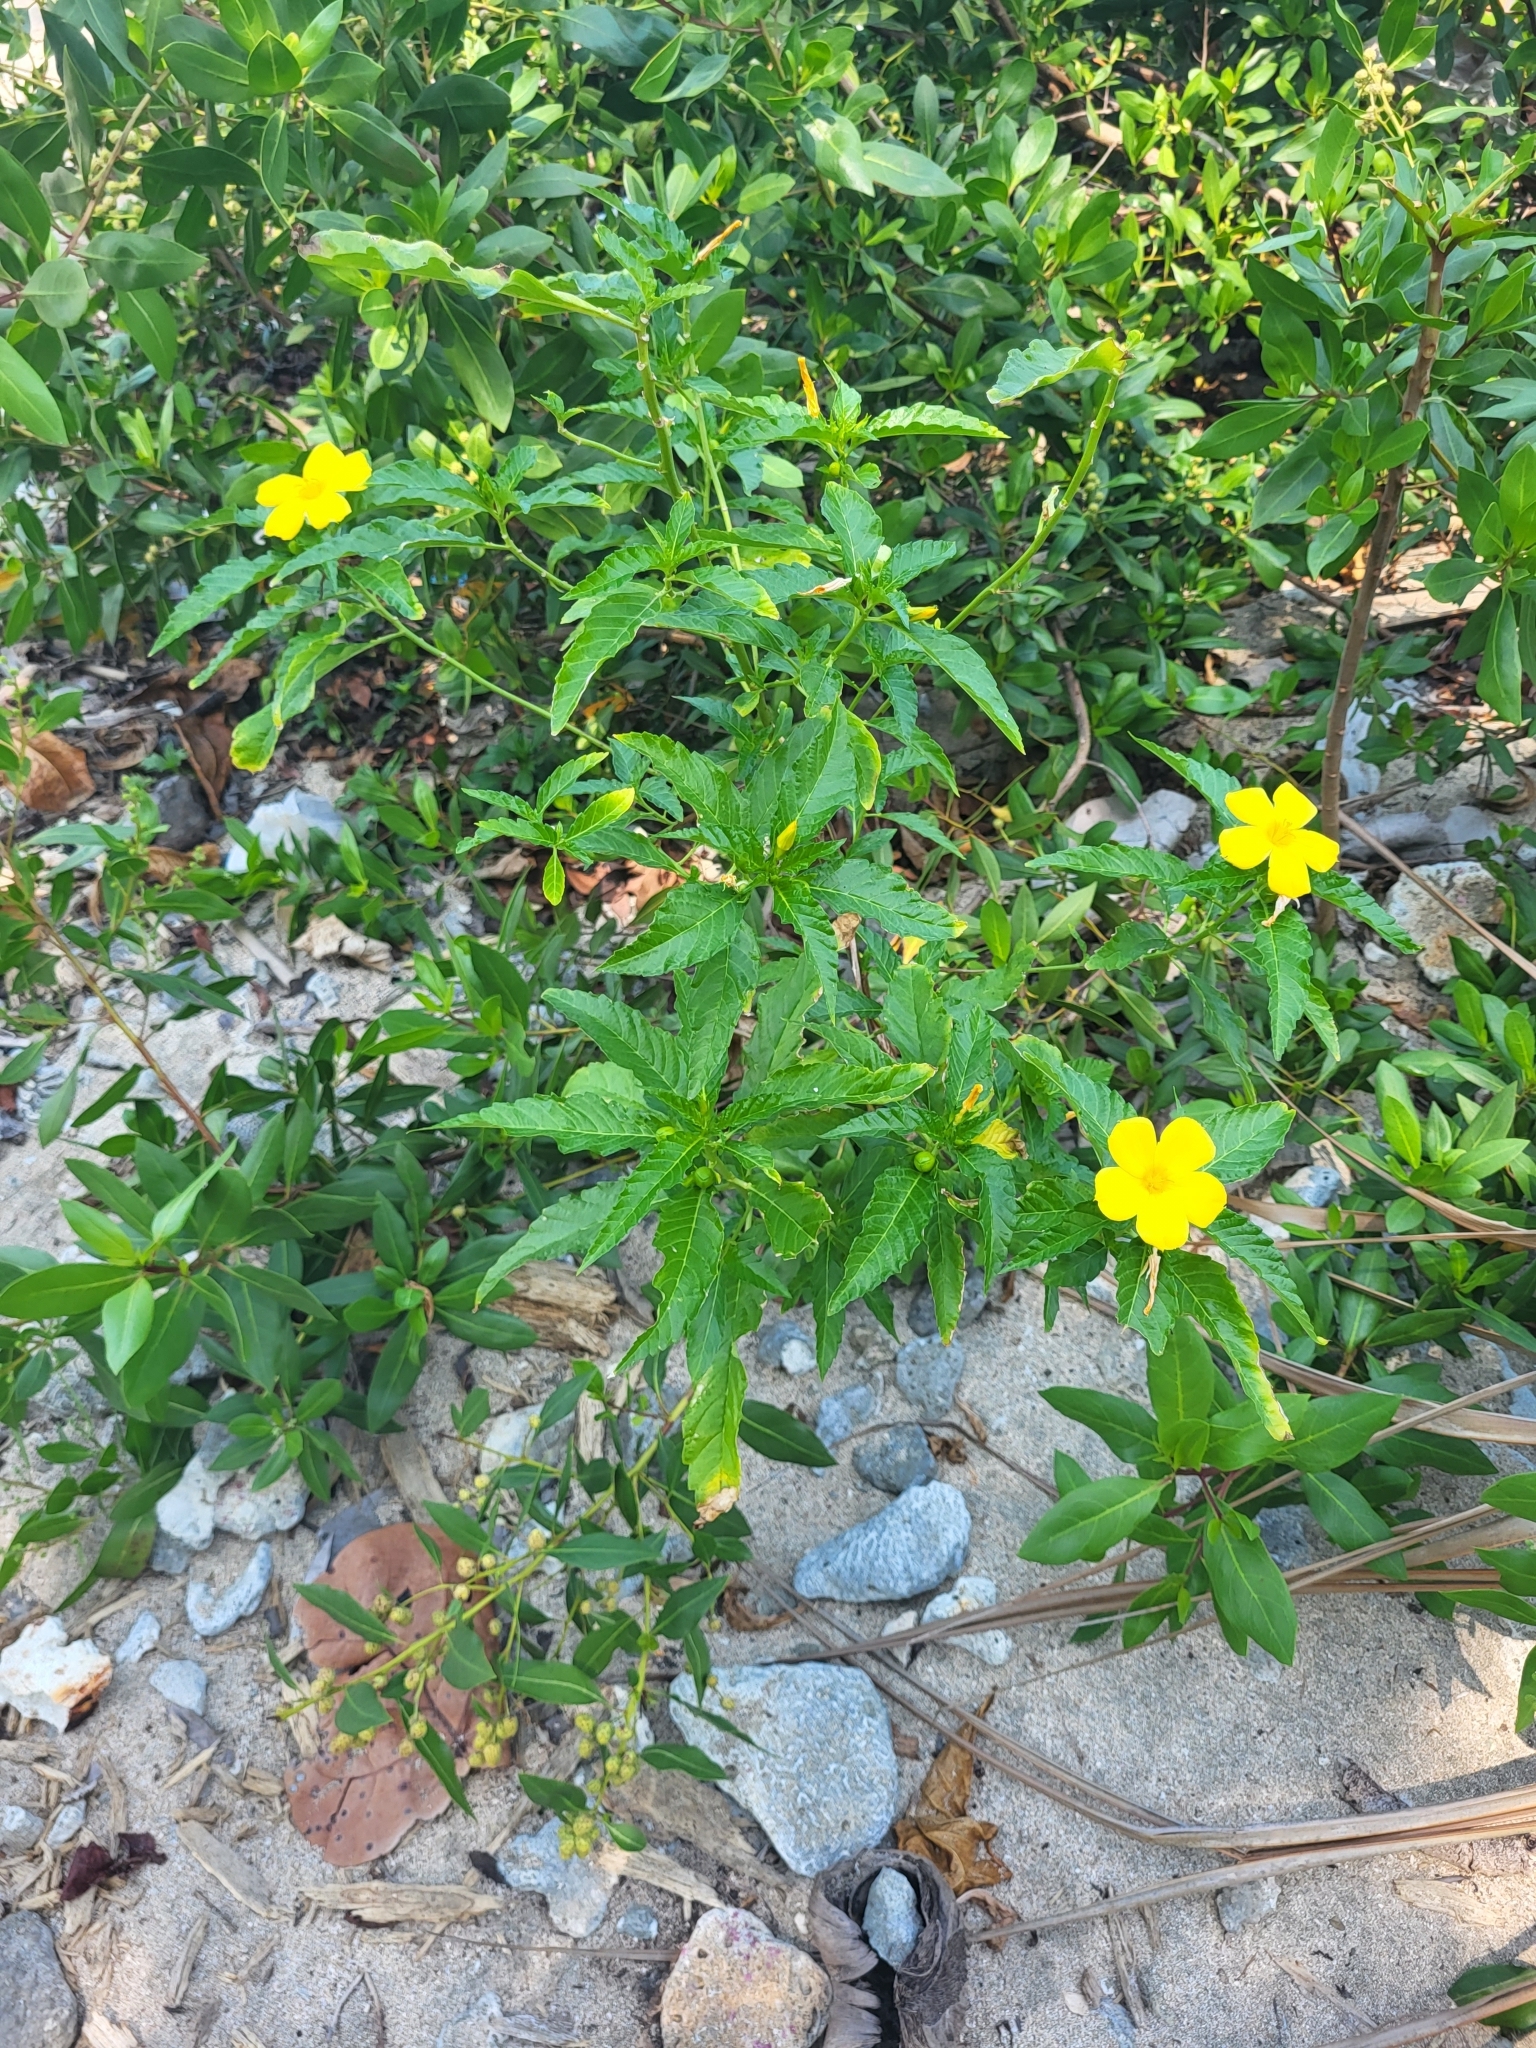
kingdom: Plantae
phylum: Tracheophyta
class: Magnoliopsida
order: Malpighiales
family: Turneraceae
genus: Turnera
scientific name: Turnera ulmifolia
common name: Ramgoat dashalong
